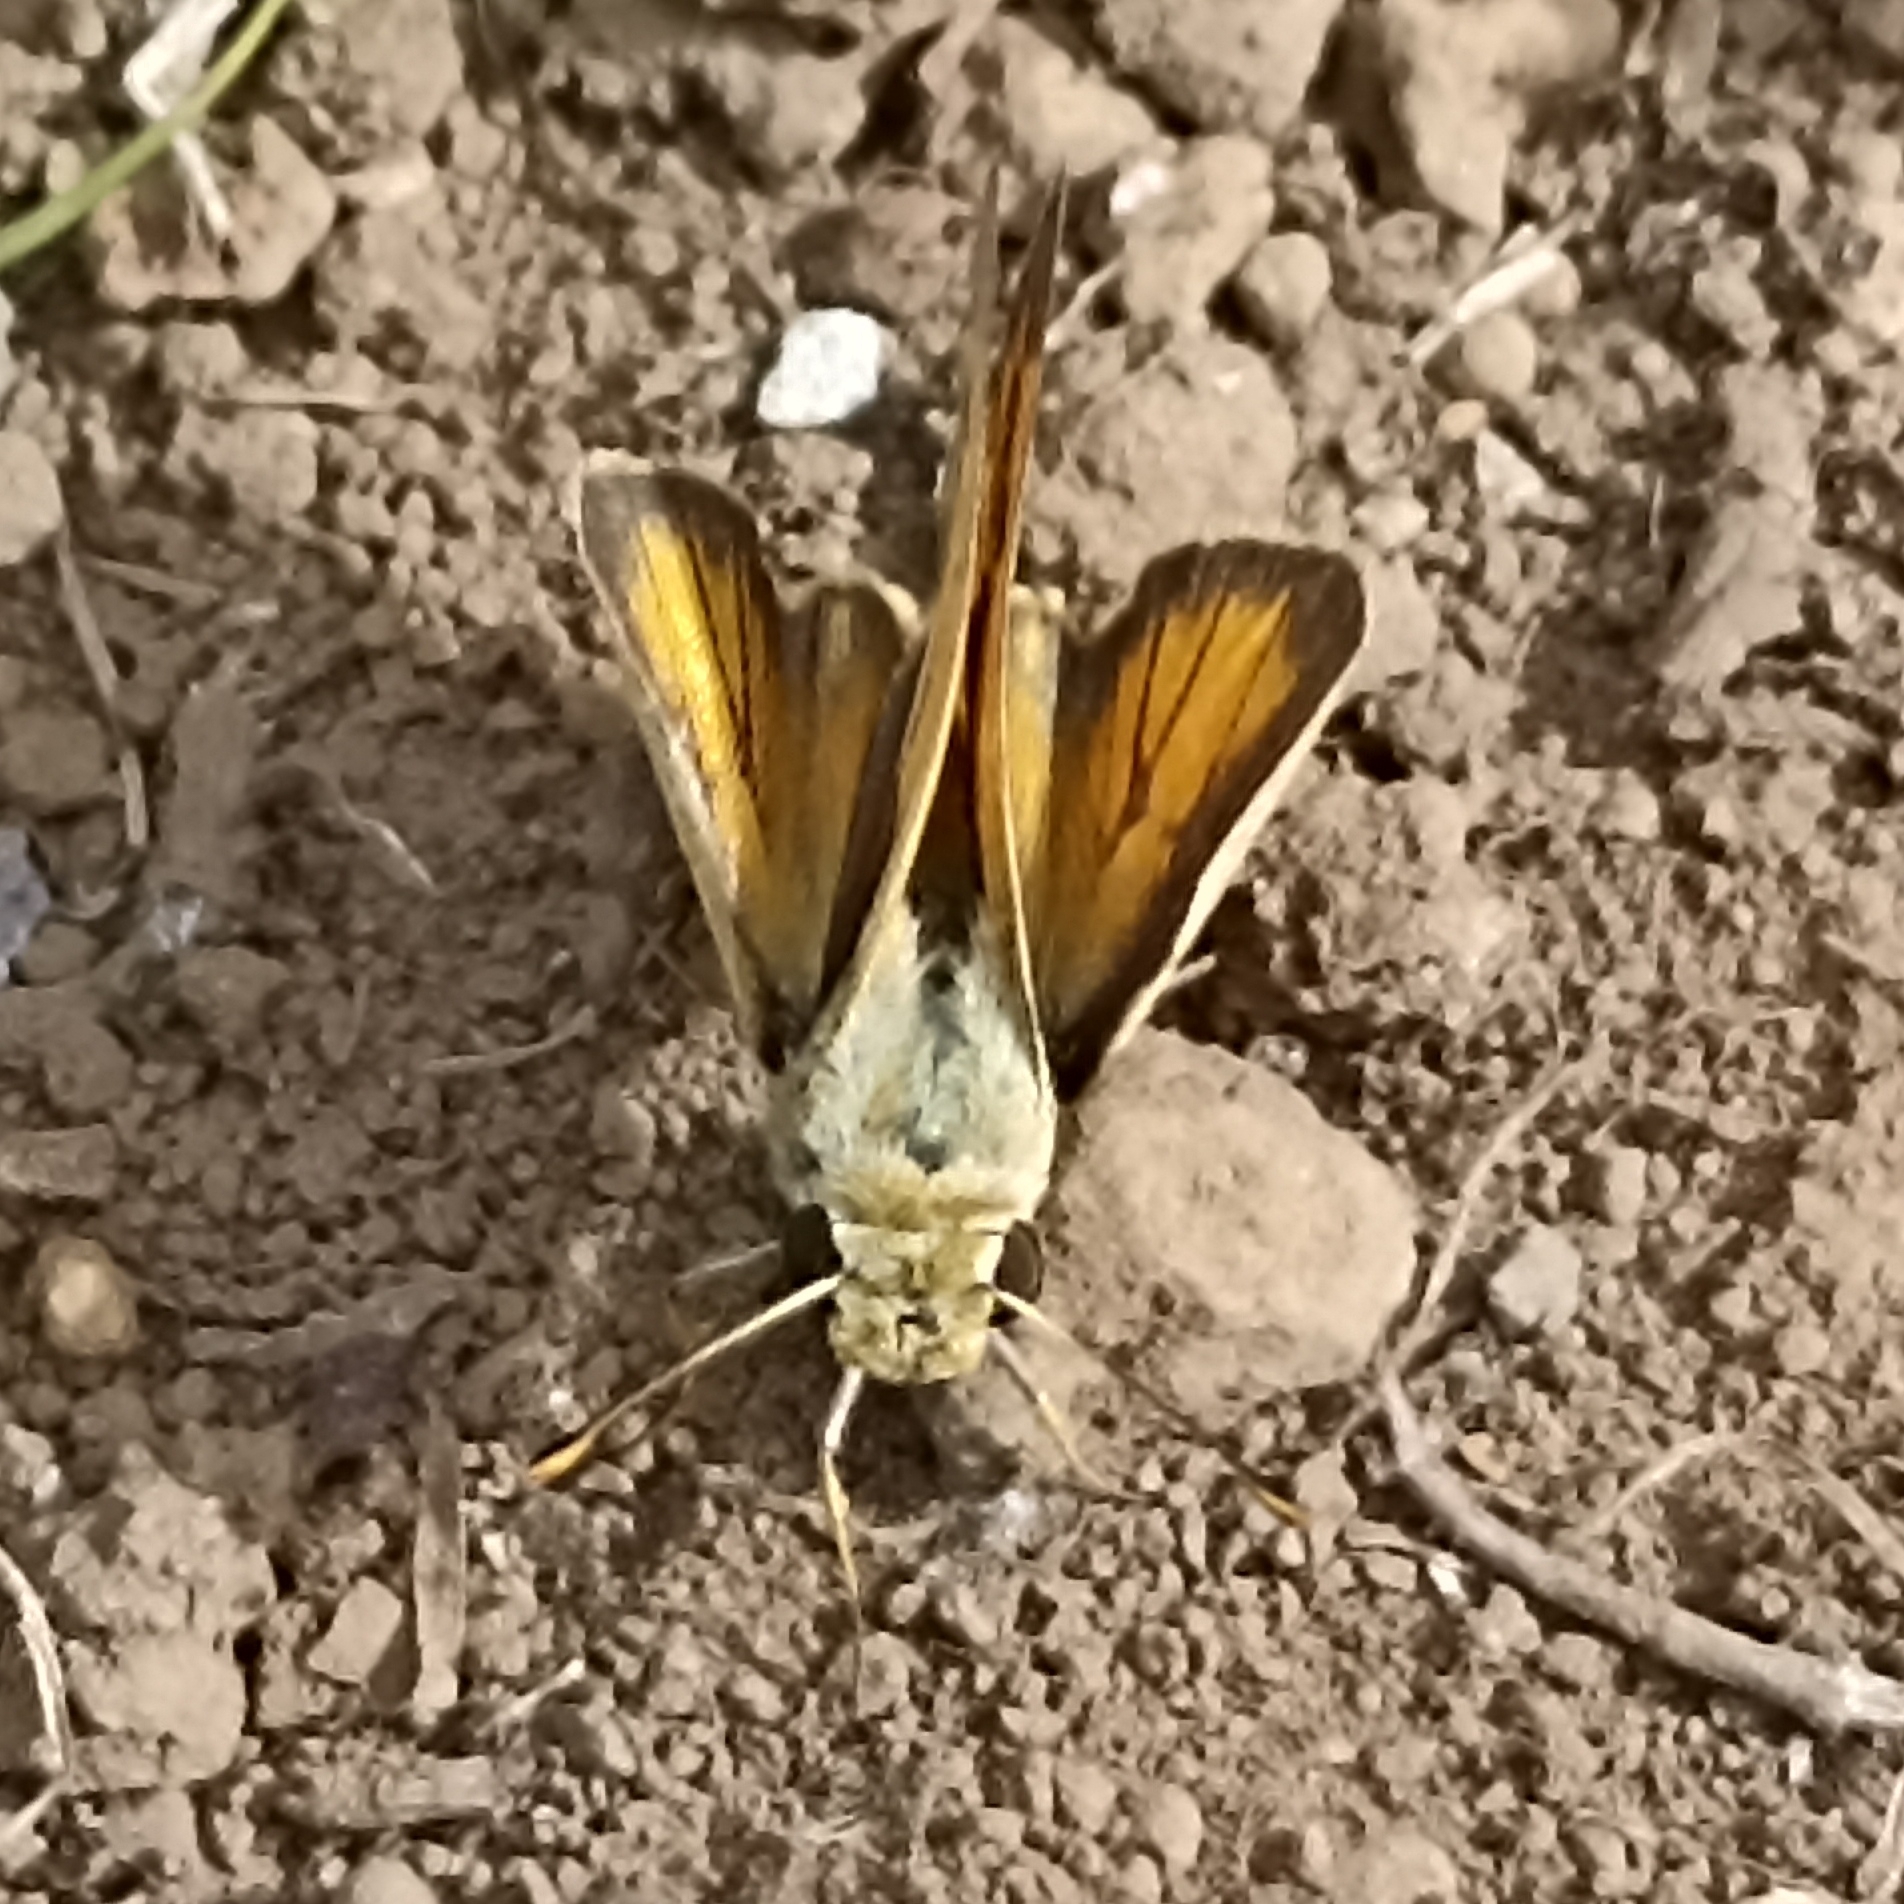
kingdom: Animalia
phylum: Arthropoda
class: Insecta
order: Lepidoptera
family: Hesperiidae
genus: Polites
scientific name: Polites vibex
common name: Whirlabout
